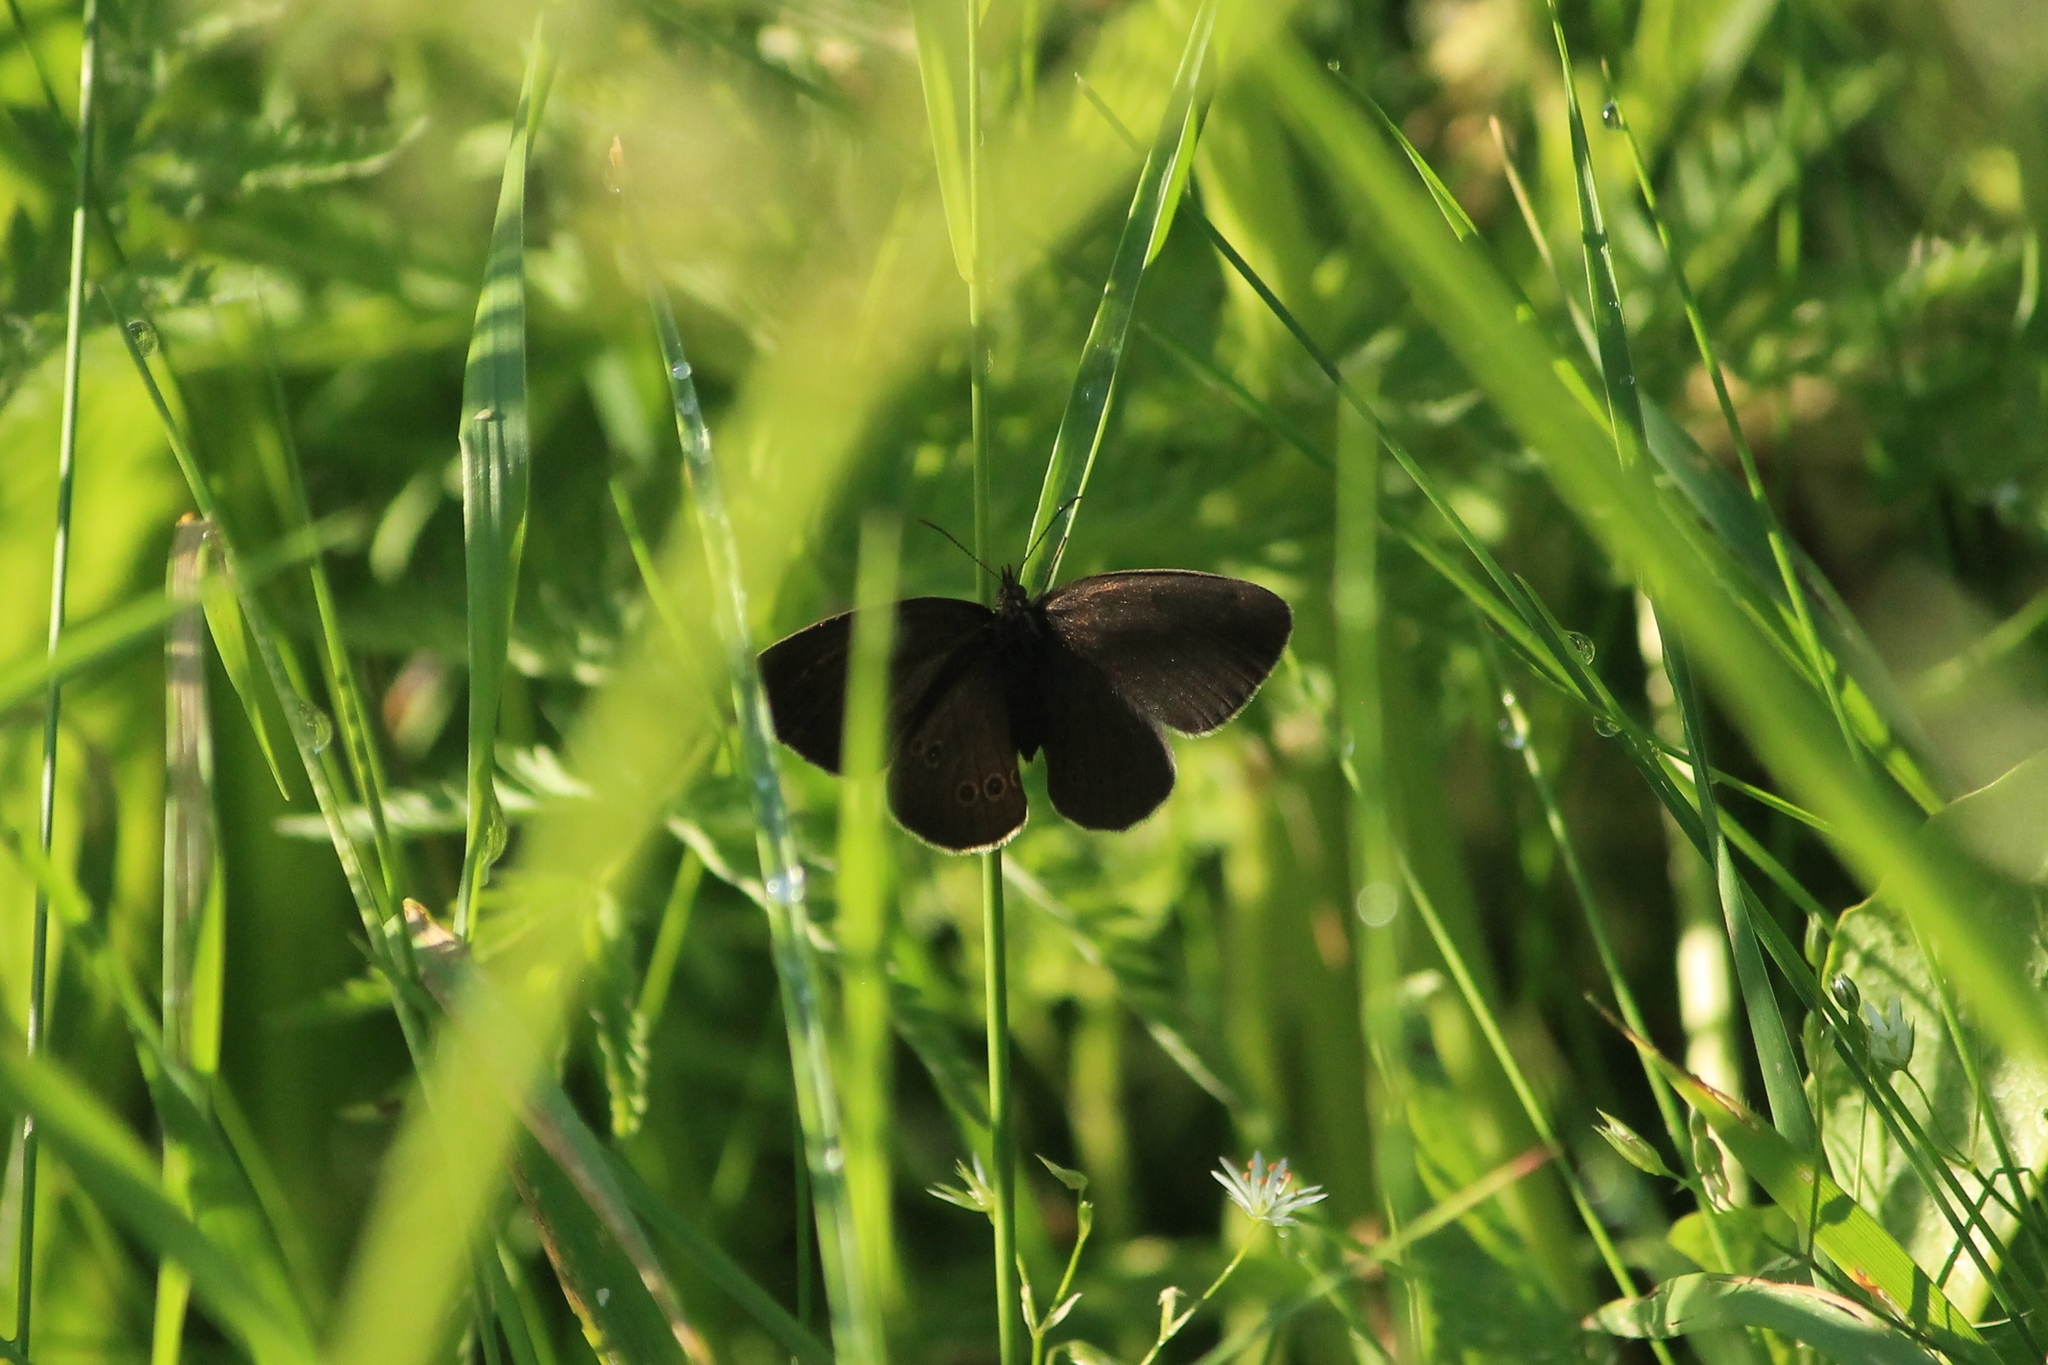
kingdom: Animalia
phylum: Arthropoda
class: Insecta
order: Lepidoptera
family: Nymphalidae
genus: Aphantopus
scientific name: Aphantopus hyperantus
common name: Ringlet
